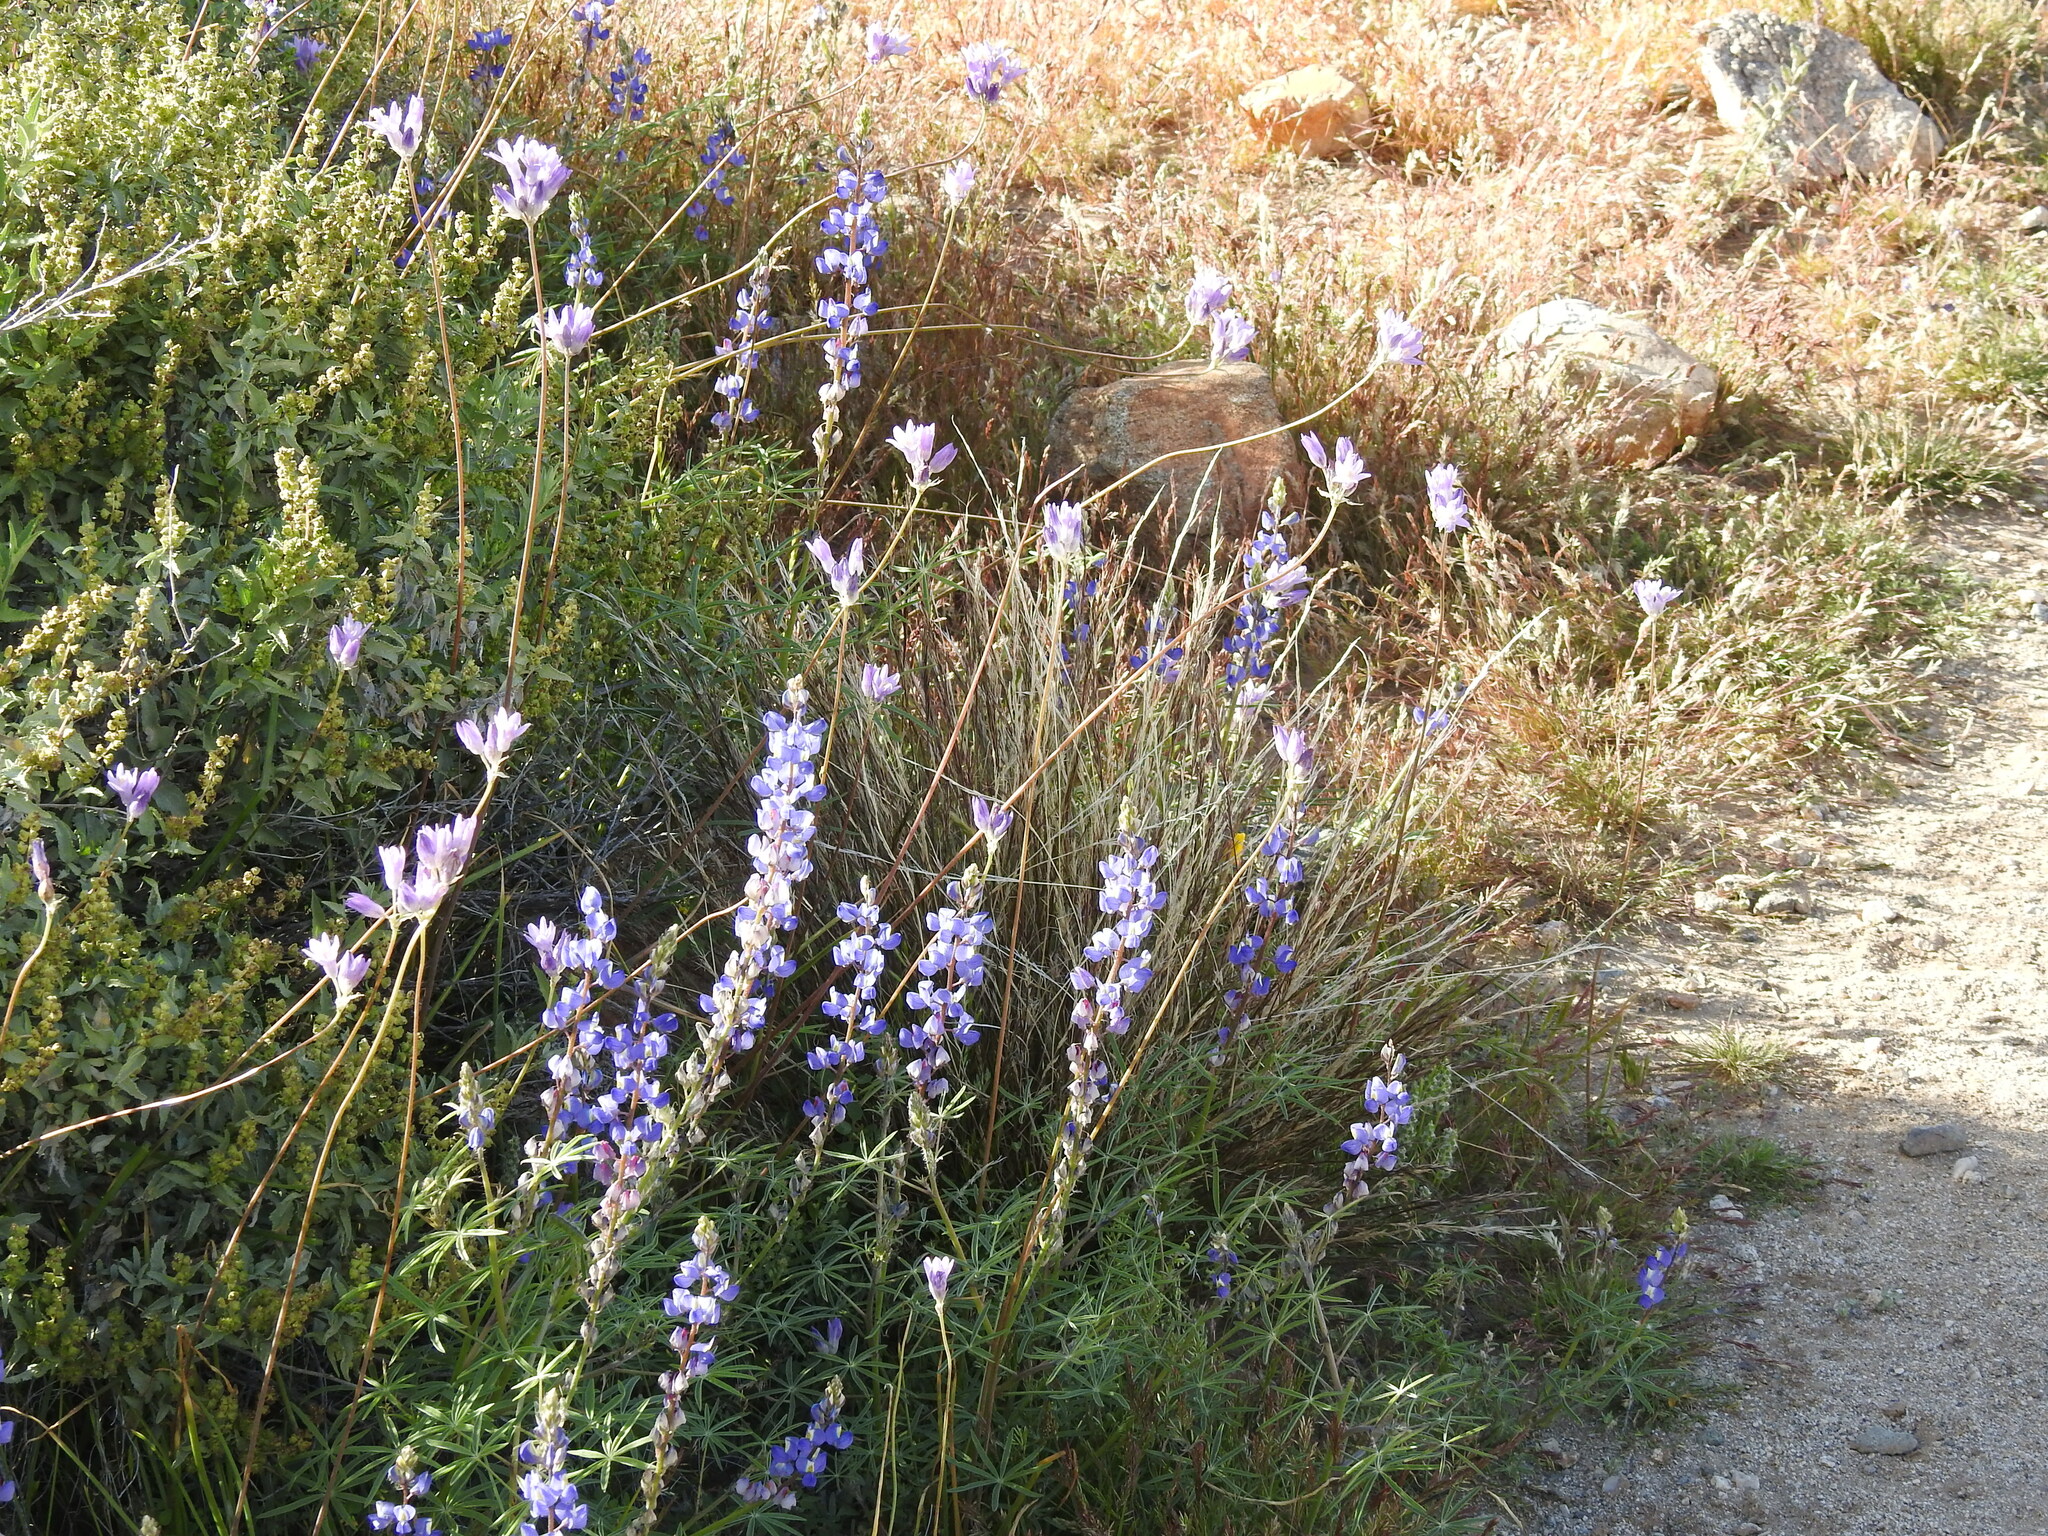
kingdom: Plantae
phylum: Tracheophyta
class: Magnoliopsida
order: Fabales
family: Fabaceae
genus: Lupinus
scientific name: Lupinus sparsiflorus
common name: Coulter's lupine
